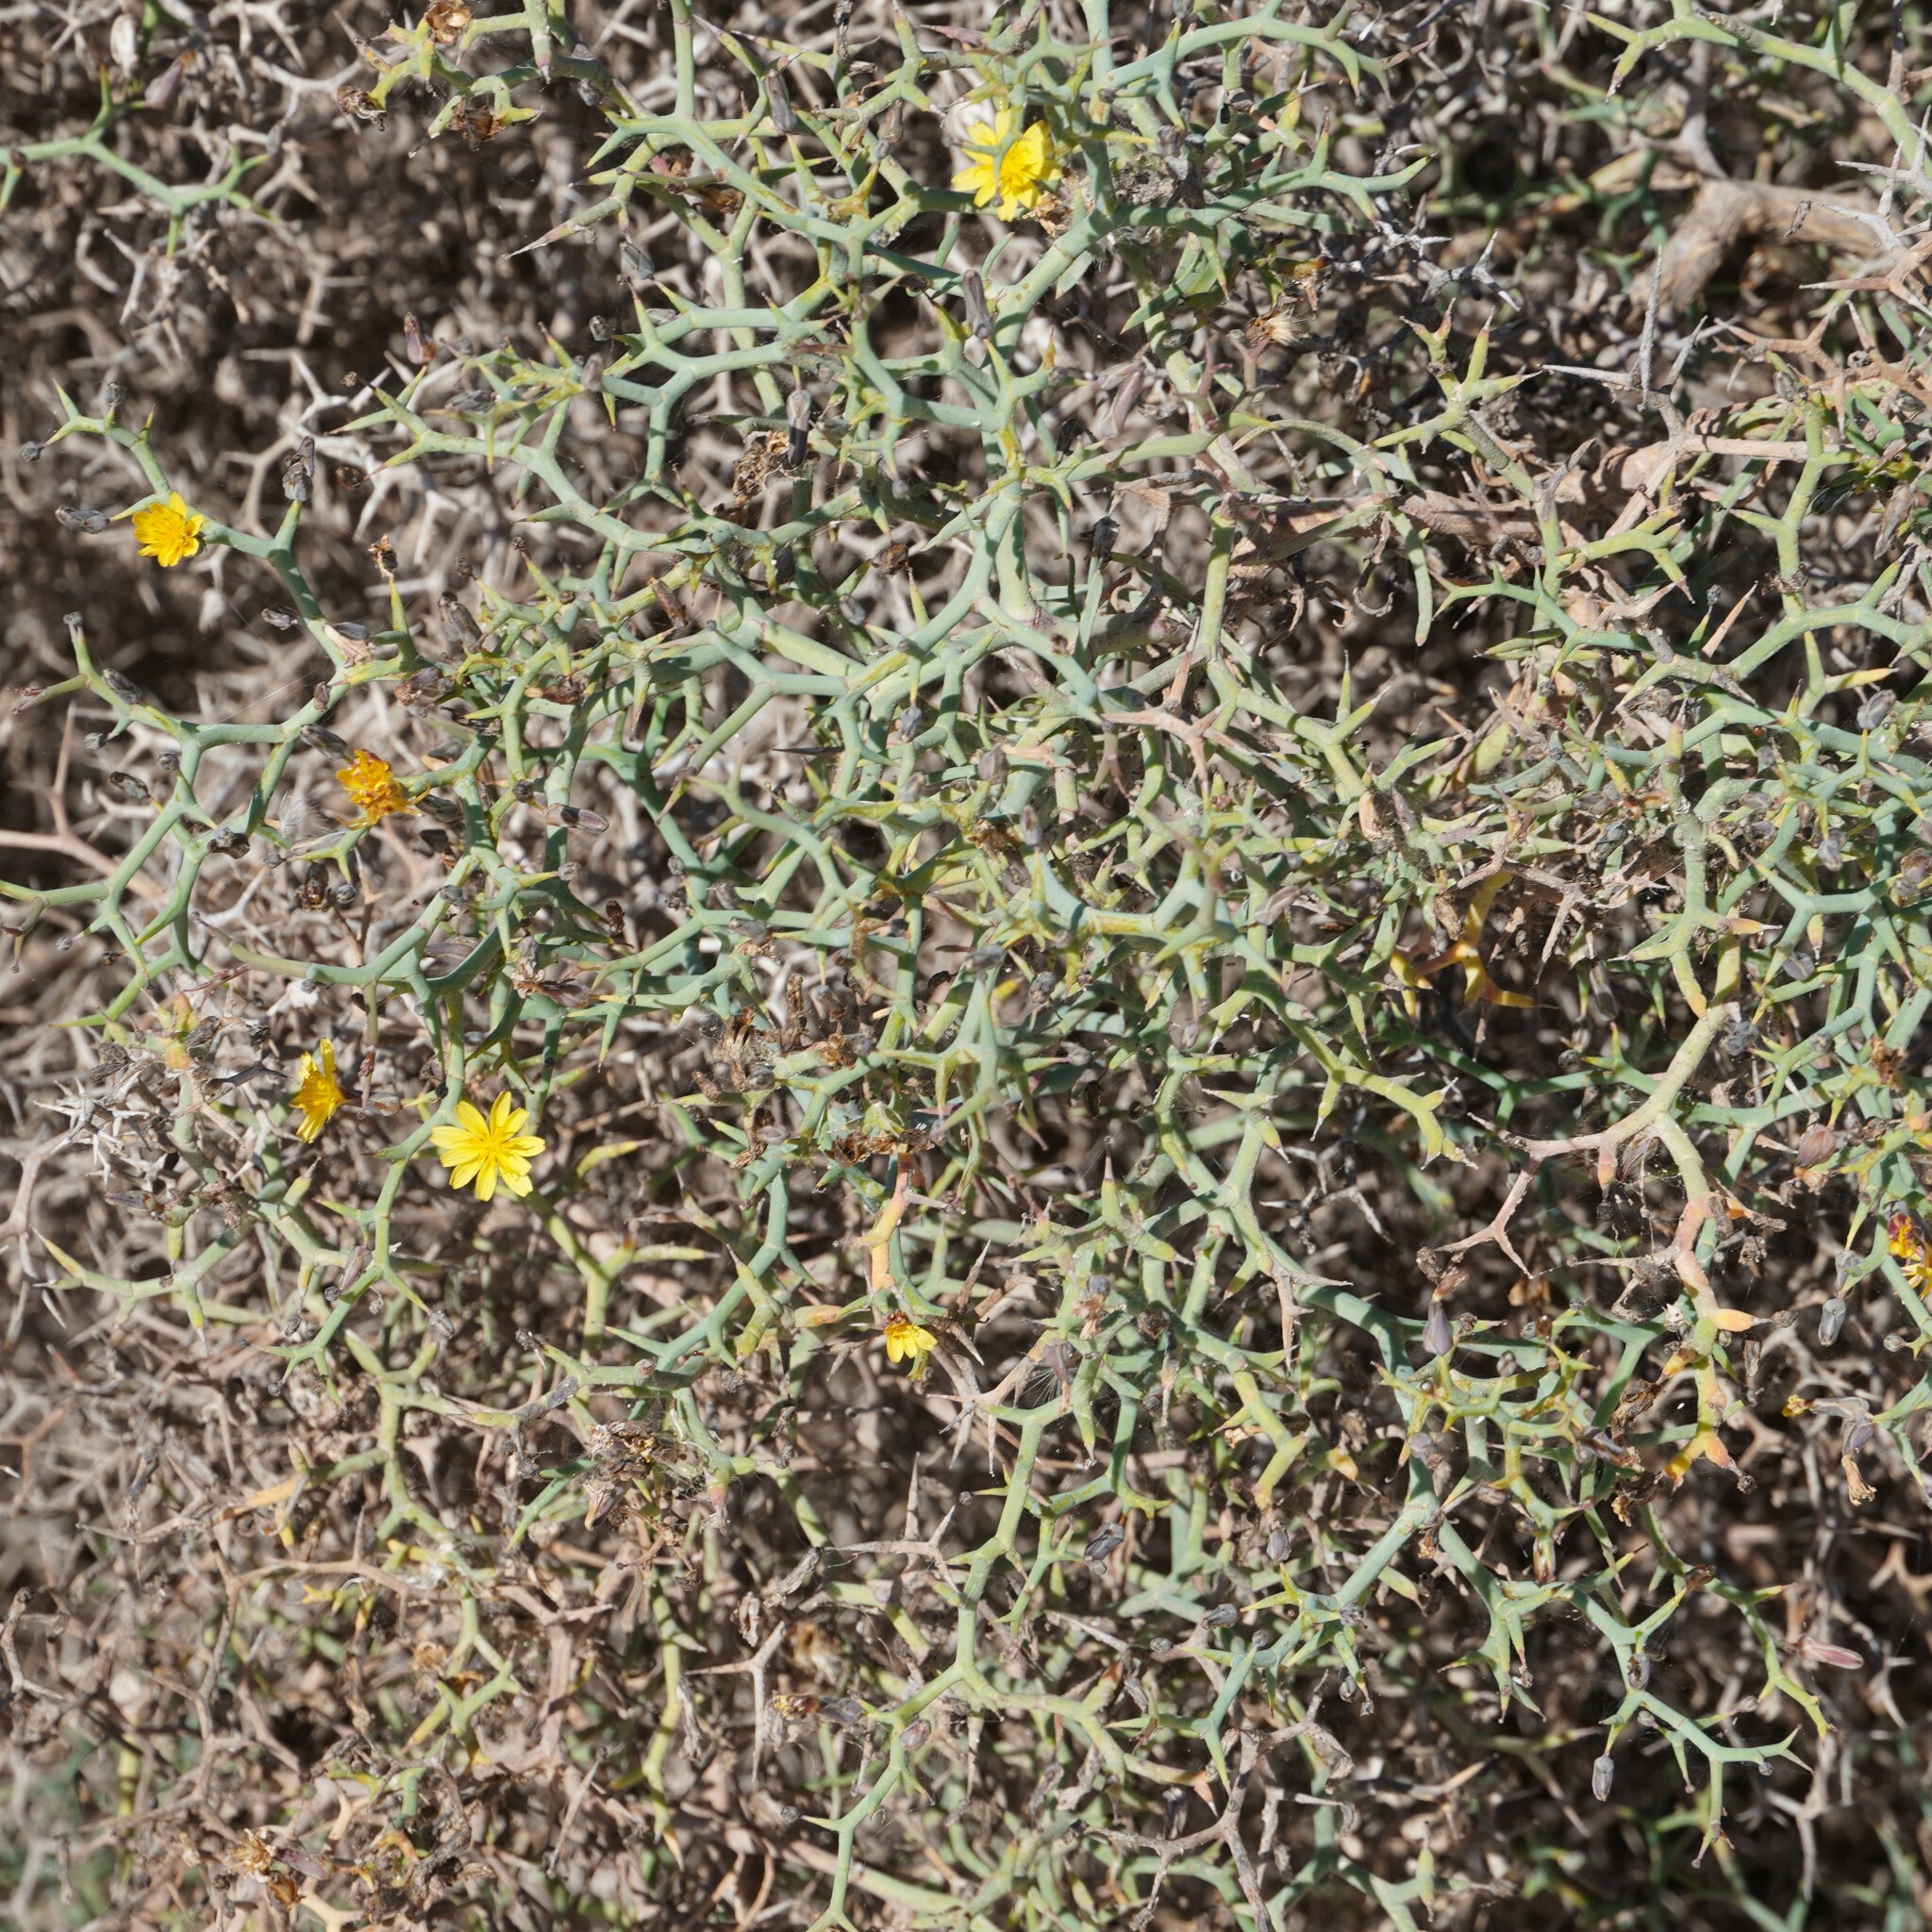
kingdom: Plantae
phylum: Tracheophyta
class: Magnoliopsida
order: Asterales
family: Asteraceae
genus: Launaea
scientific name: Launaea arborescens
